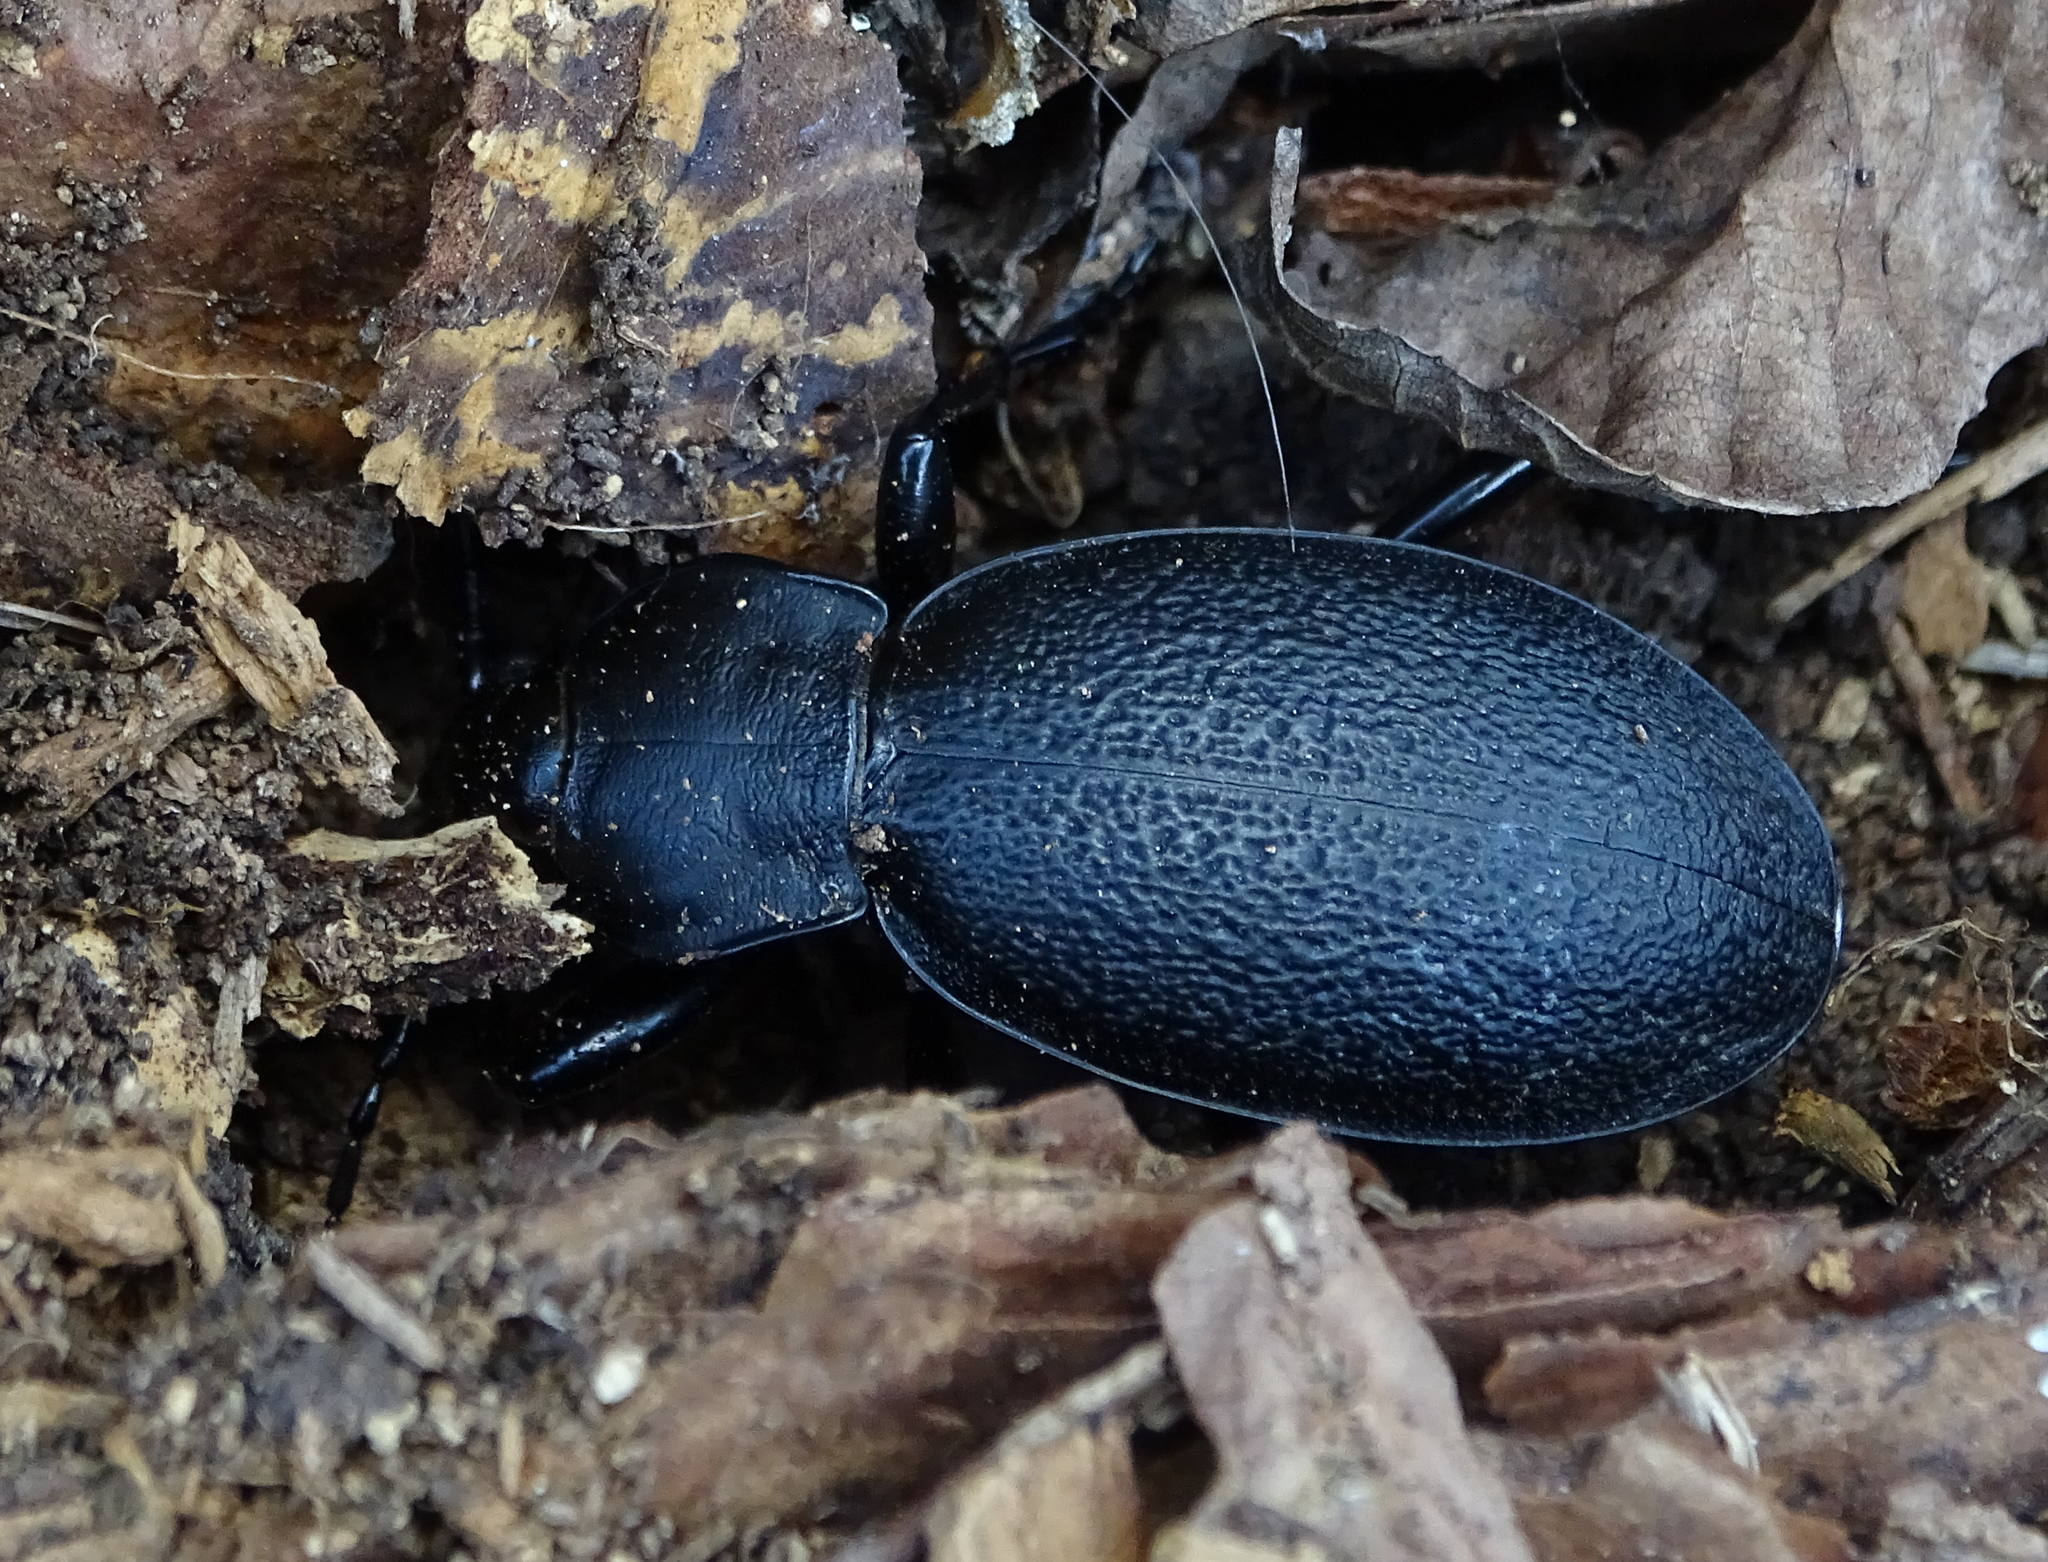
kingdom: Animalia
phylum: Arthropoda
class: Insecta
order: Coleoptera
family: Carabidae
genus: Carabus
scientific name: Carabus coriaceus
